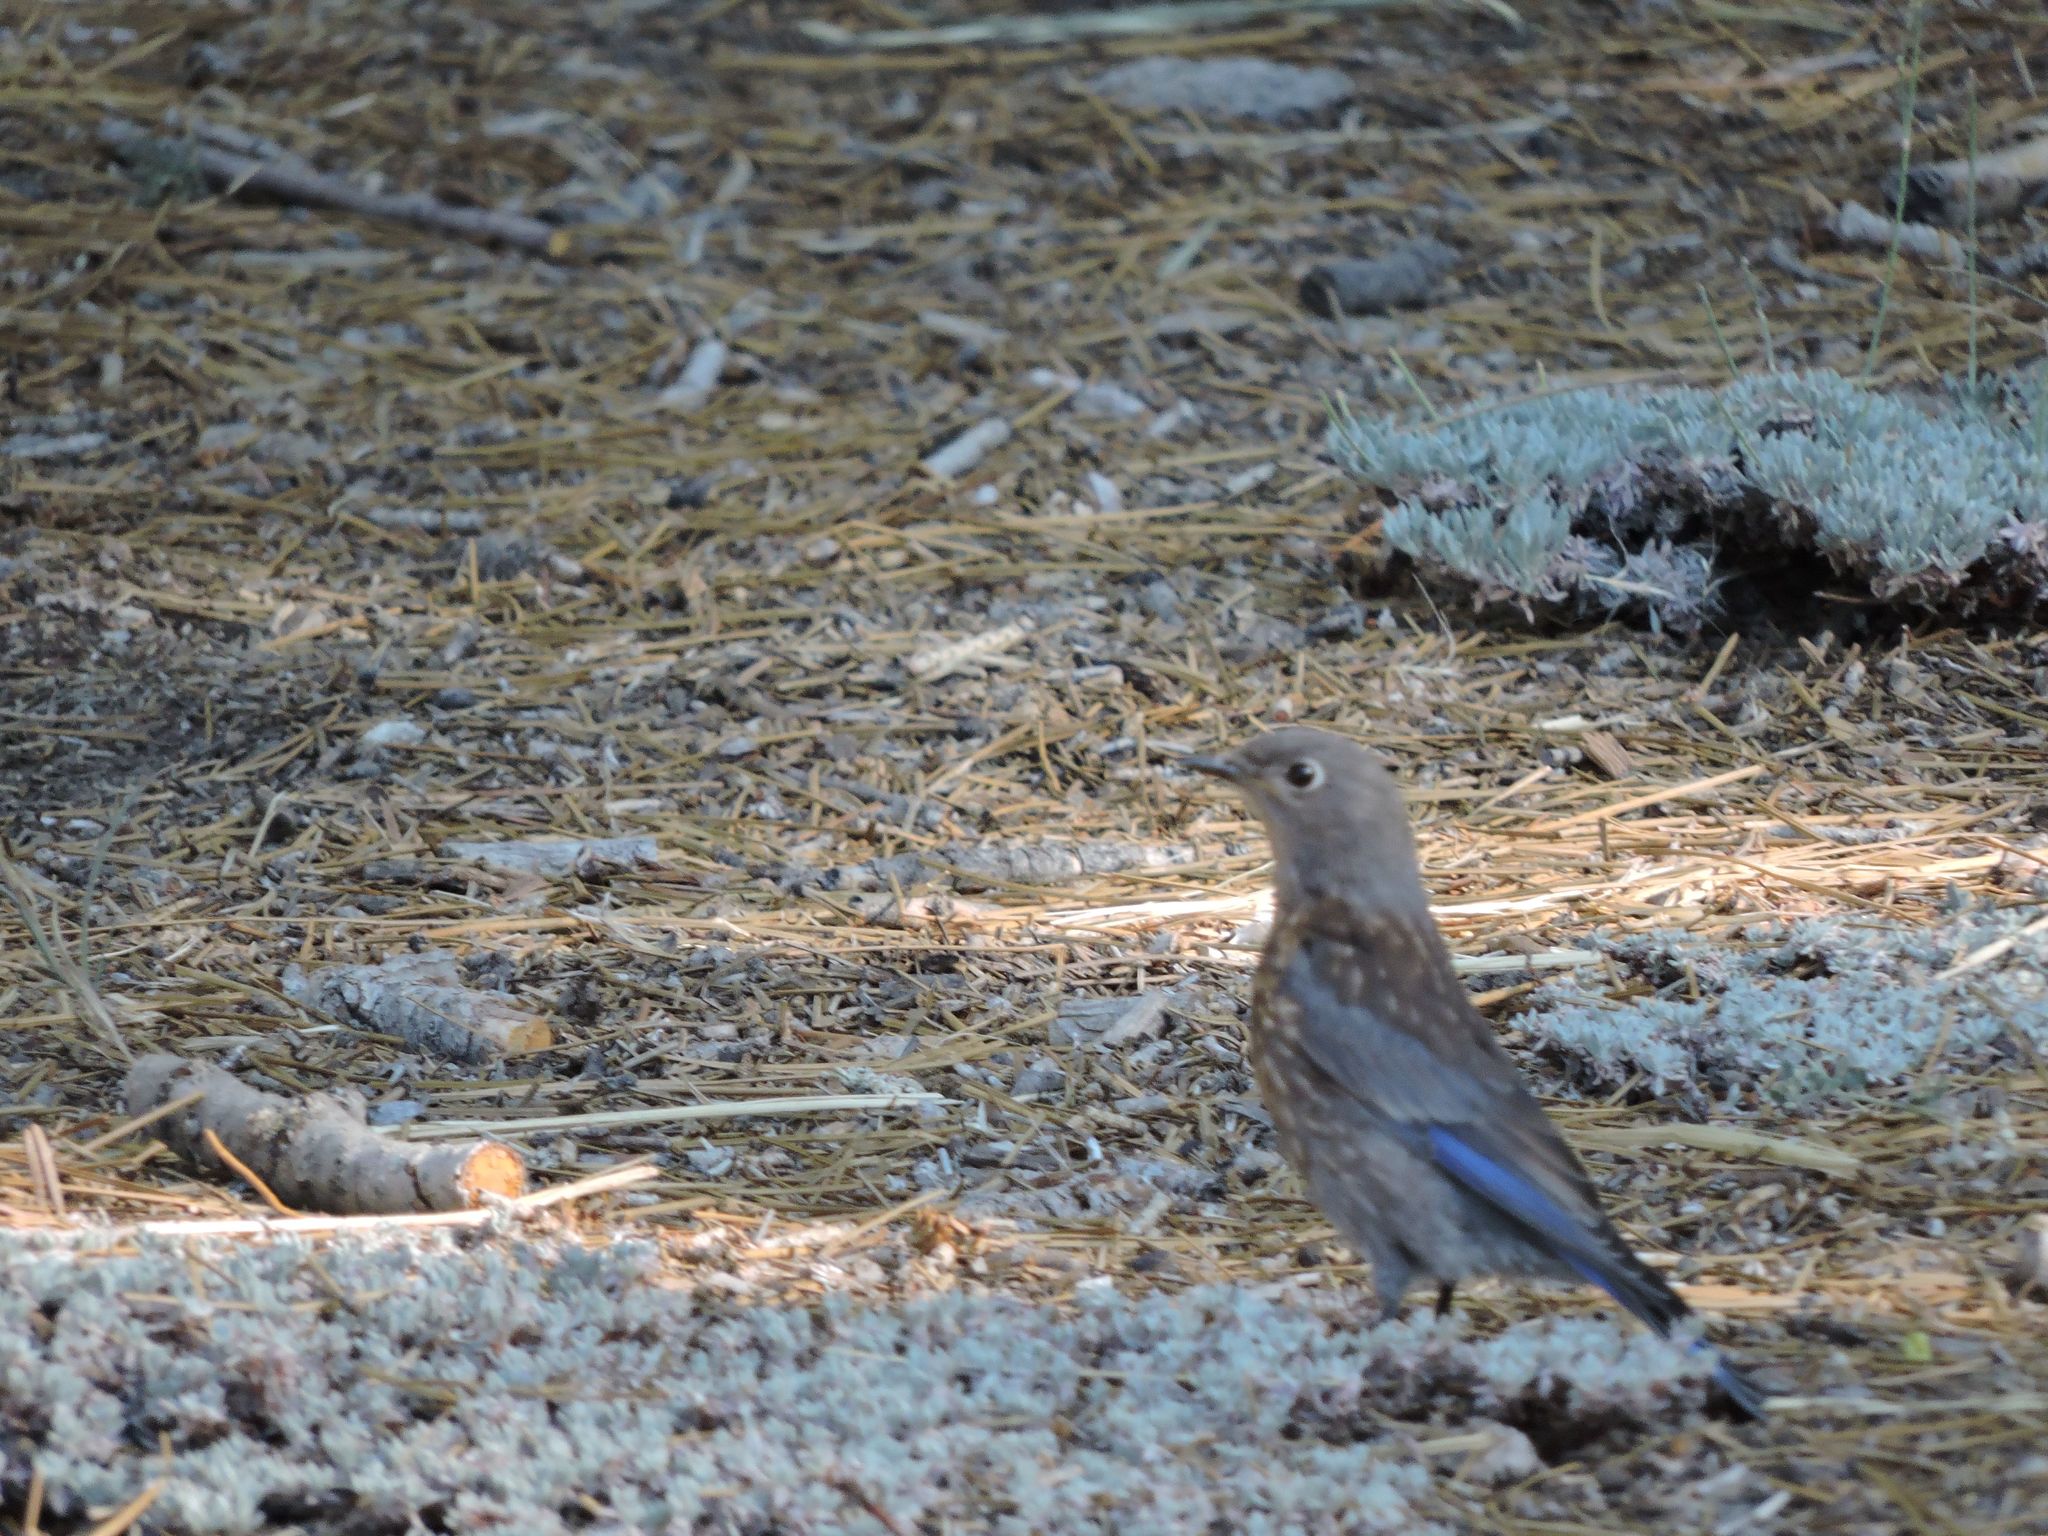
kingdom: Animalia
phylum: Chordata
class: Aves
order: Passeriformes
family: Turdidae
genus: Sialia
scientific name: Sialia mexicana
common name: Western bluebird
